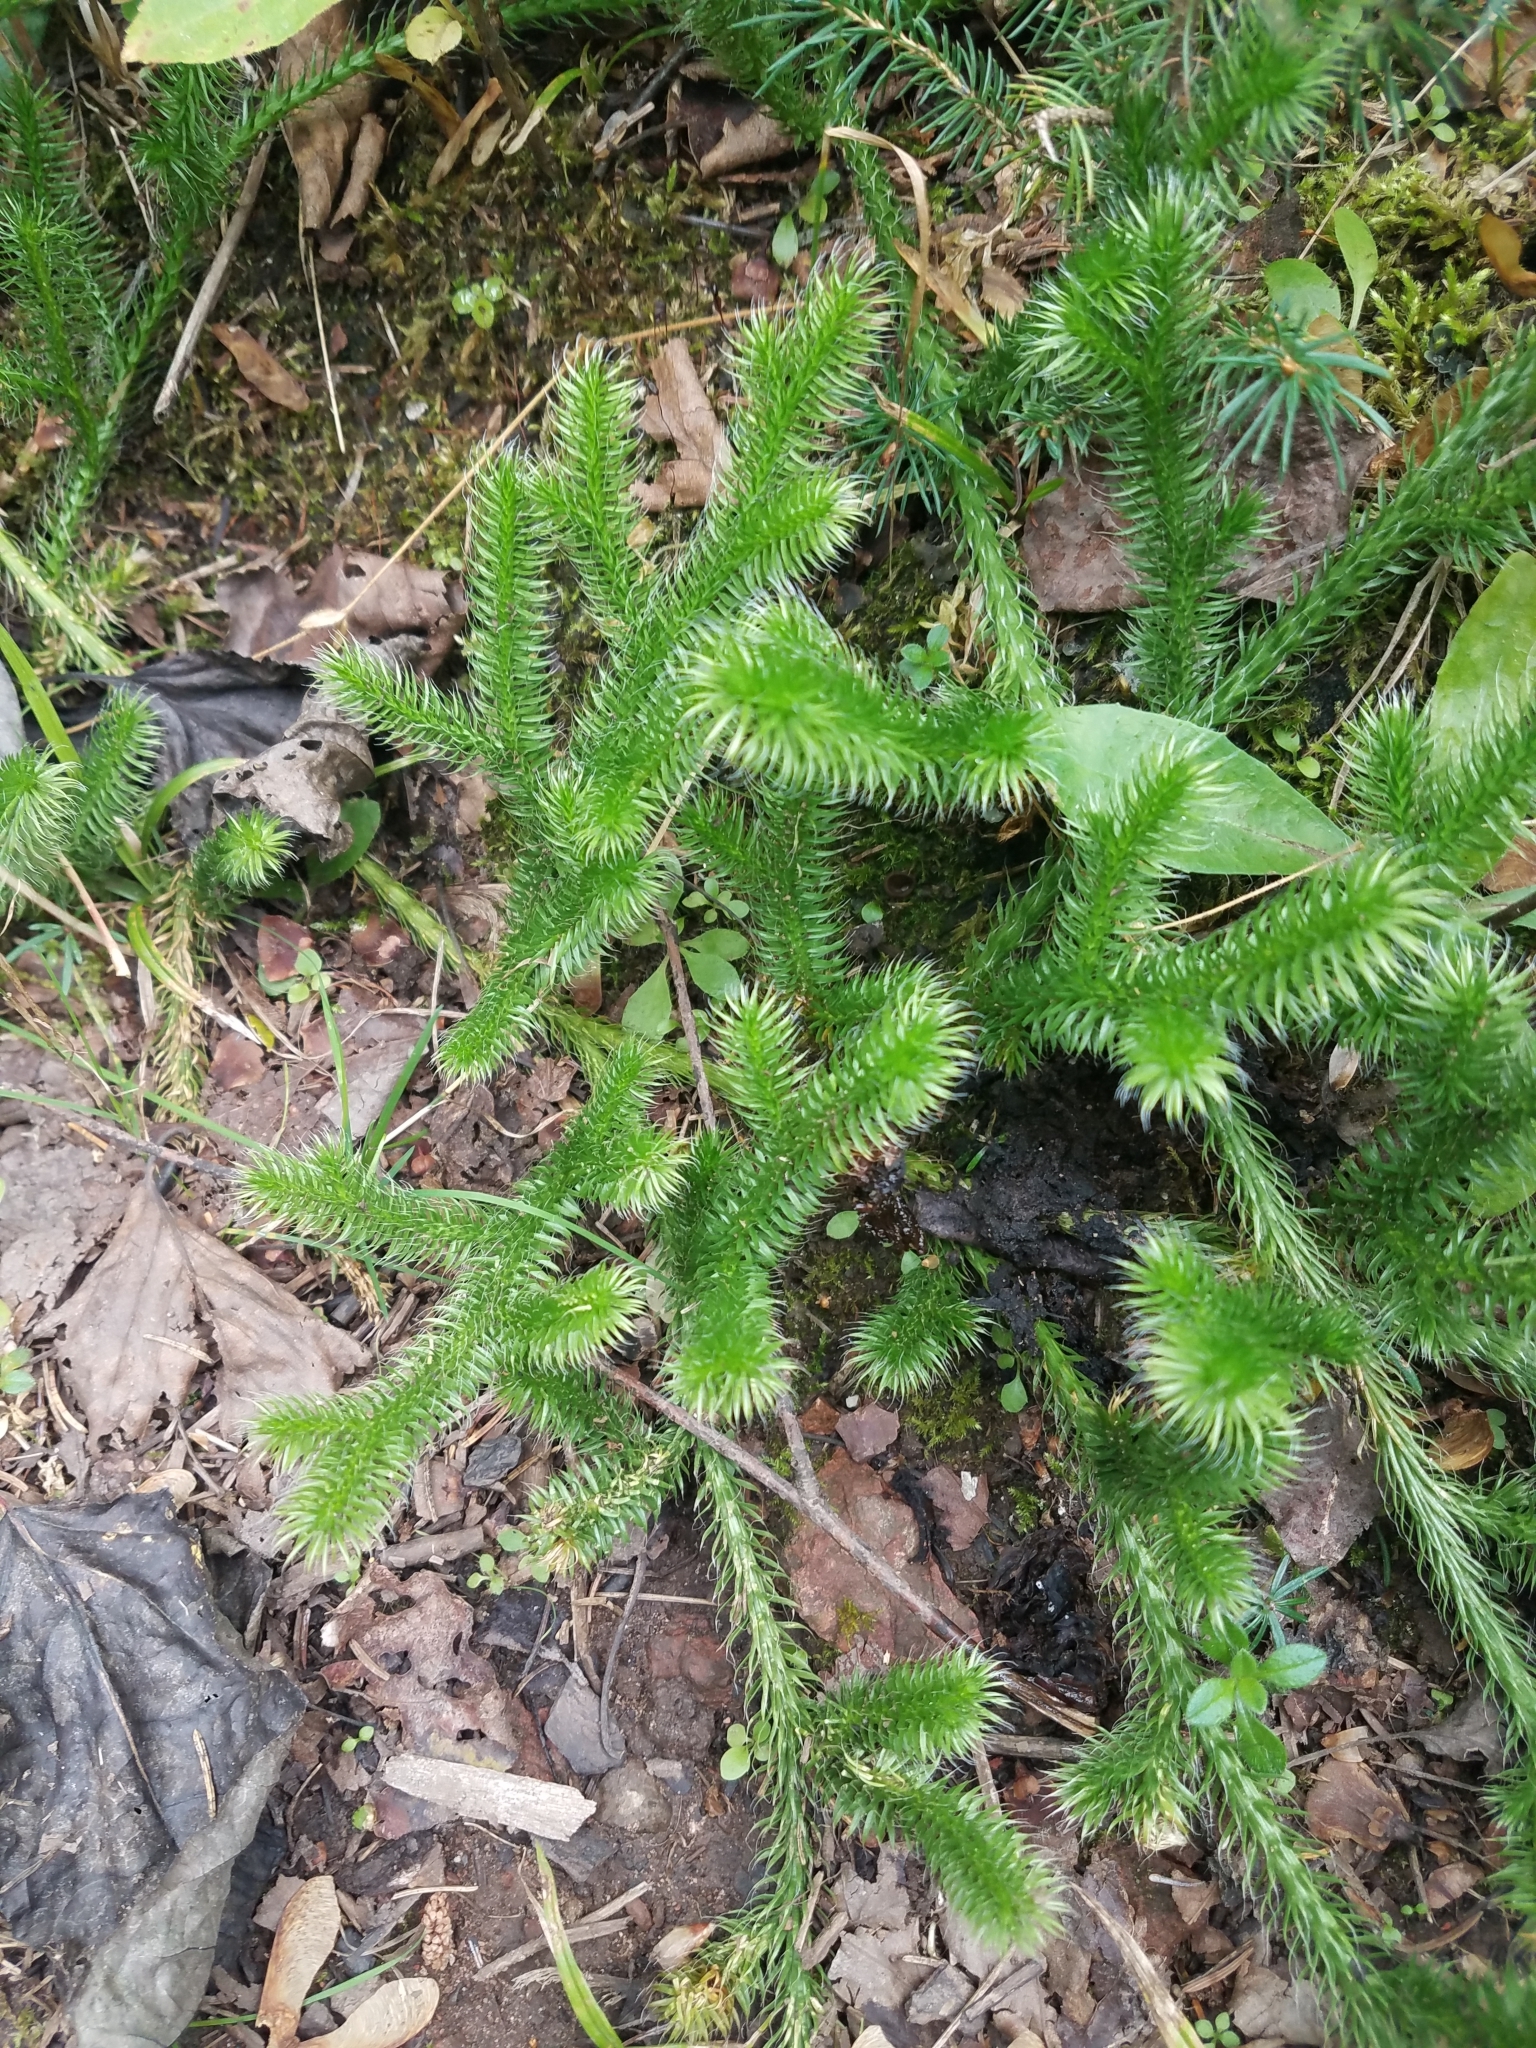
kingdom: Plantae
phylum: Tracheophyta
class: Lycopodiopsida
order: Lycopodiales
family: Lycopodiaceae
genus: Lycopodium
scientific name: Lycopodium clavatum
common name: Stag's-horn clubmoss
